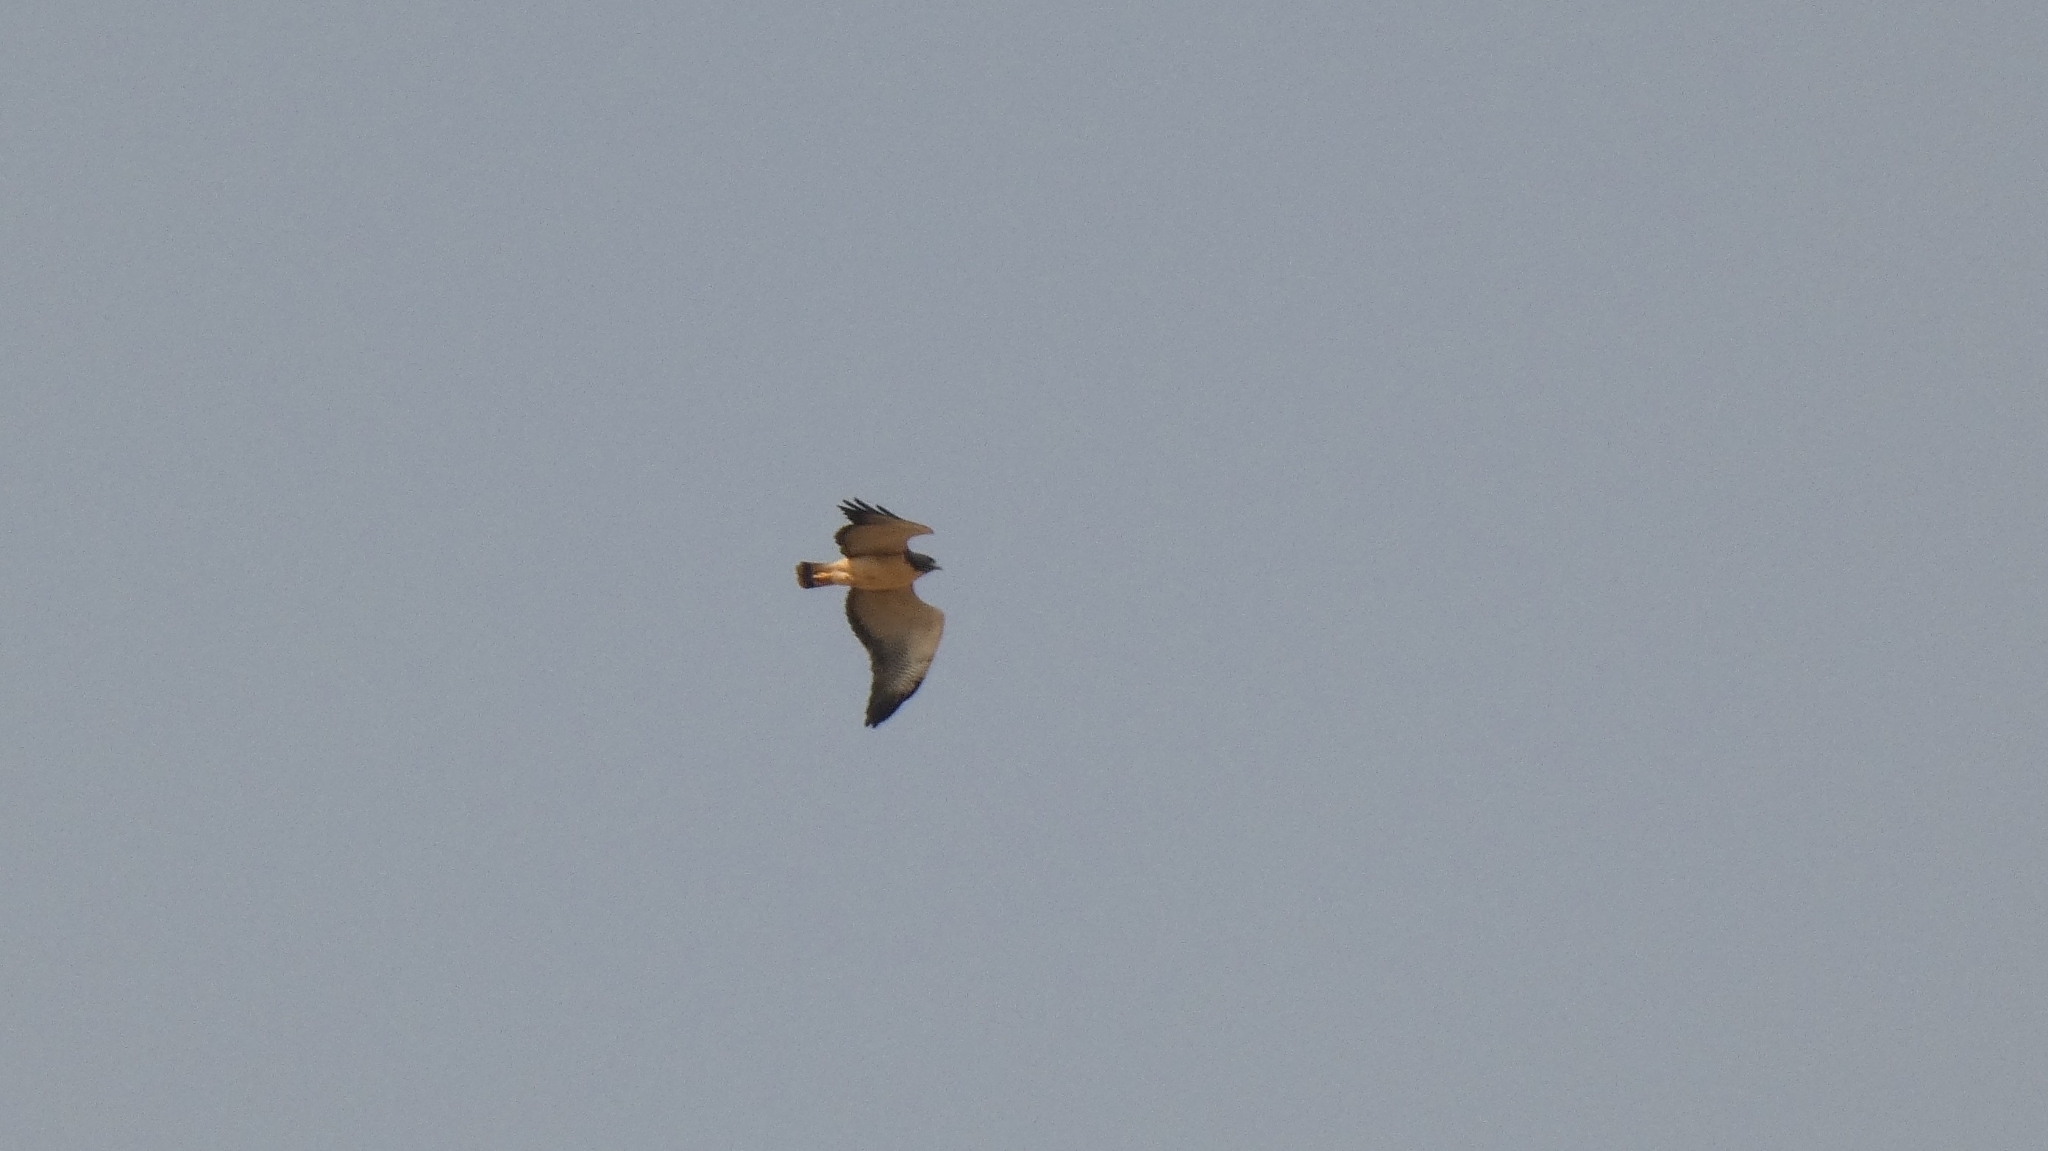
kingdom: Animalia
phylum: Chordata
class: Aves
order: Accipitriformes
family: Accipitridae
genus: Buteo
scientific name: Buteo albicaudatus
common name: White-tailed hawk
